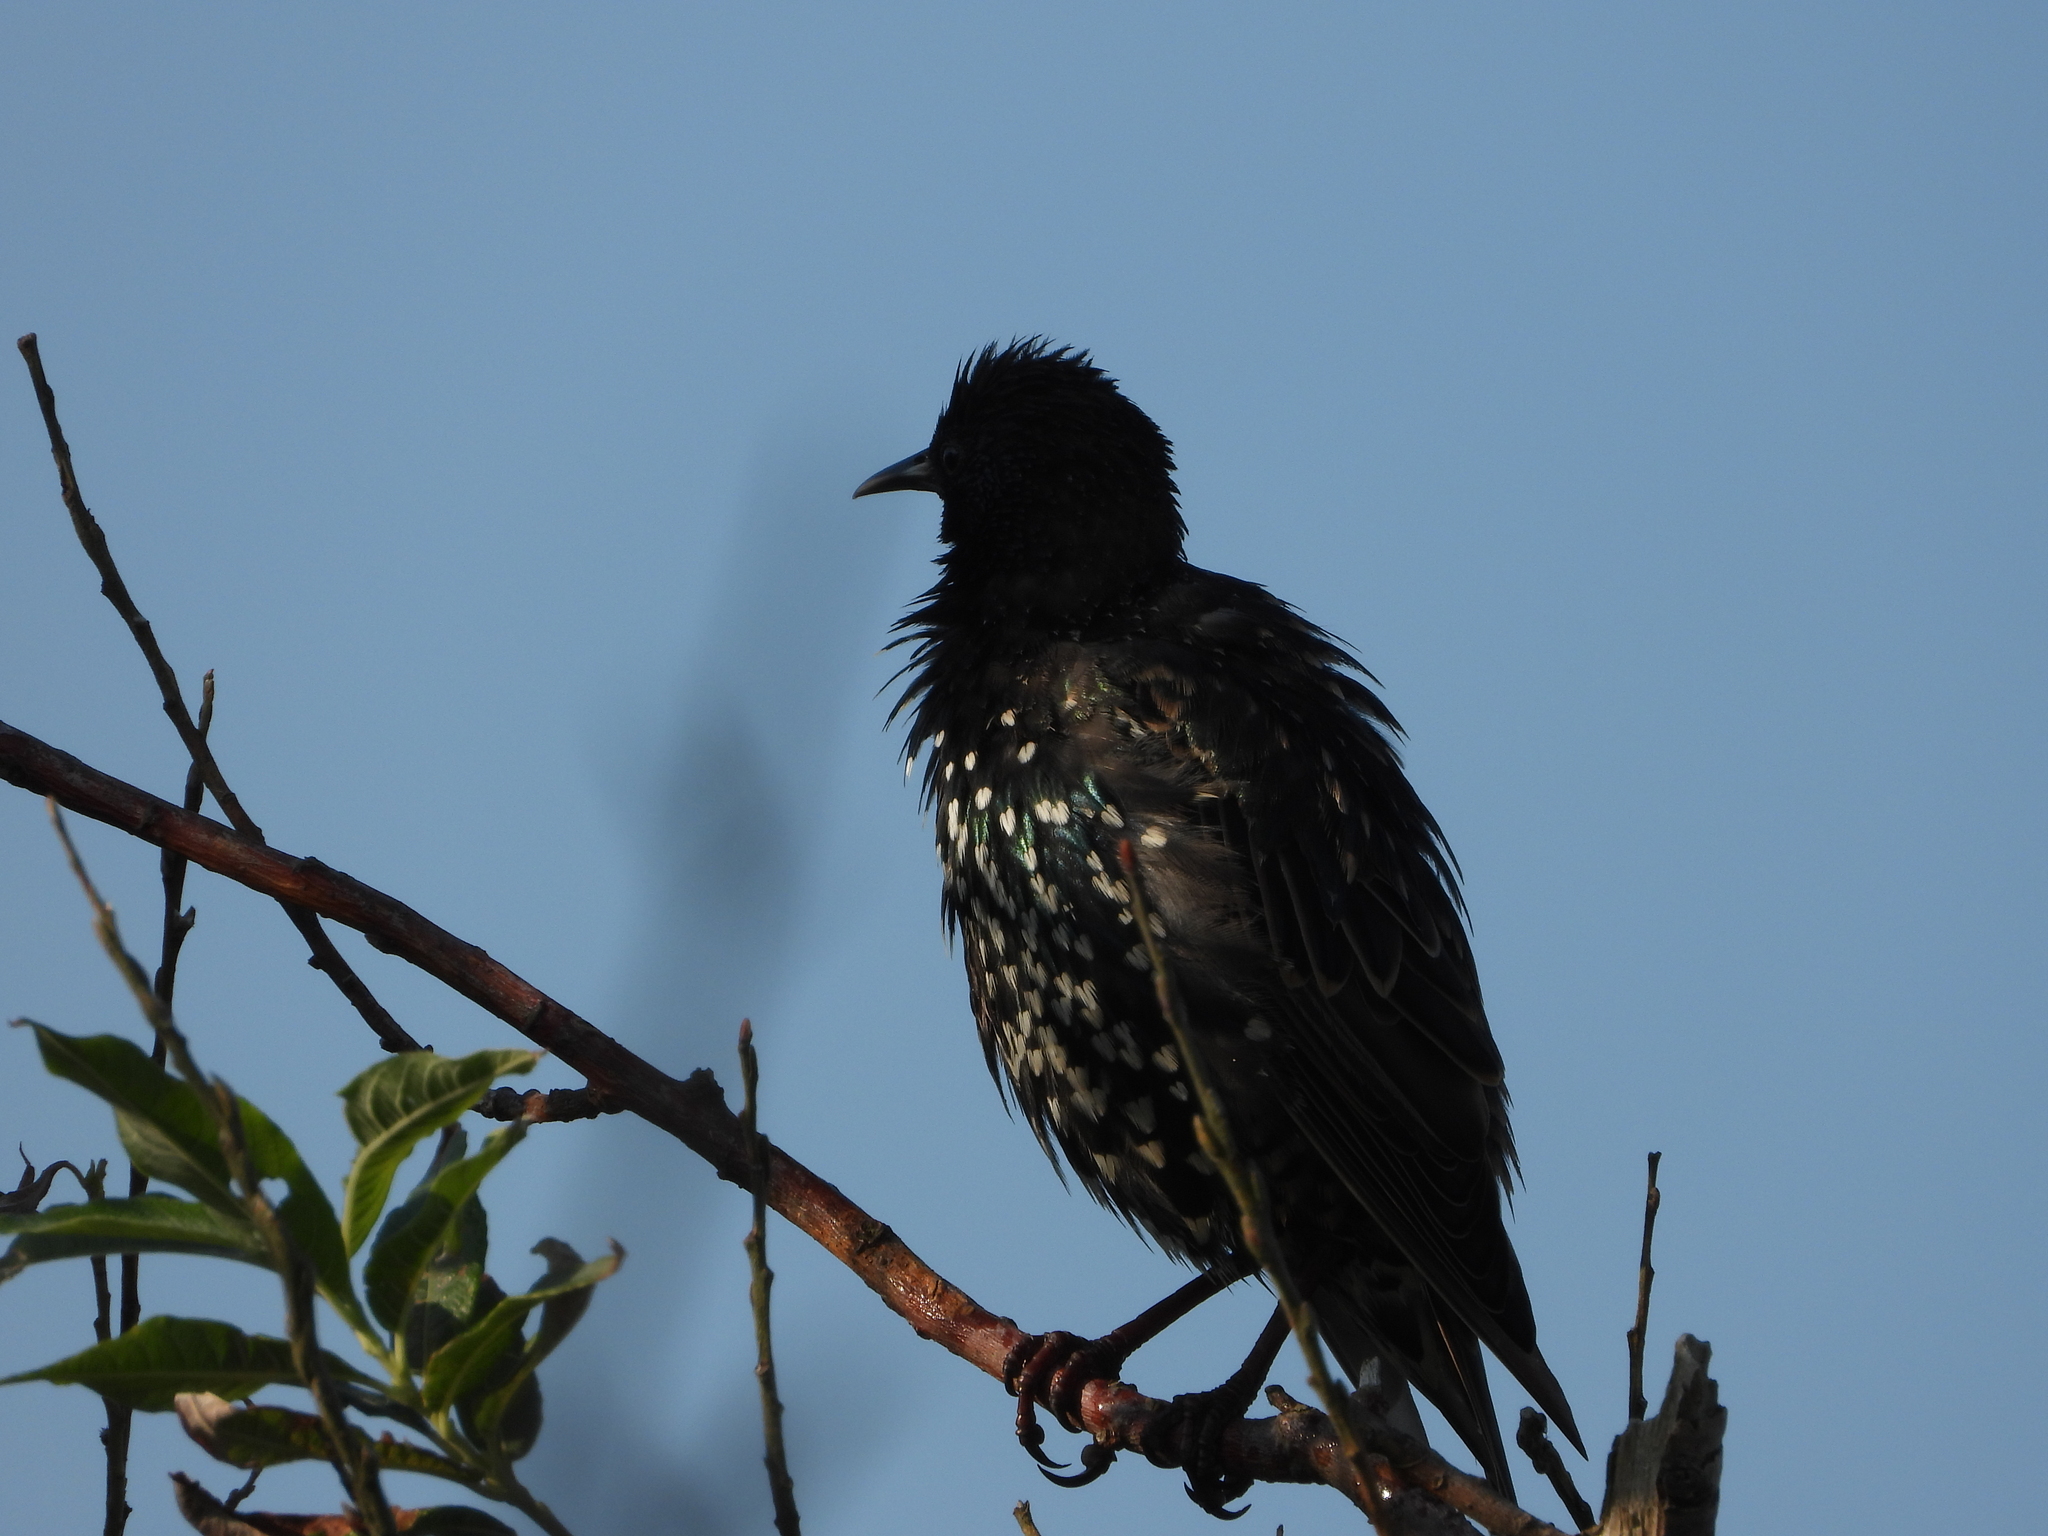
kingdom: Animalia
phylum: Chordata
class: Aves
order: Passeriformes
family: Sturnidae
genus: Sturnus
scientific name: Sturnus vulgaris
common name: Common starling
